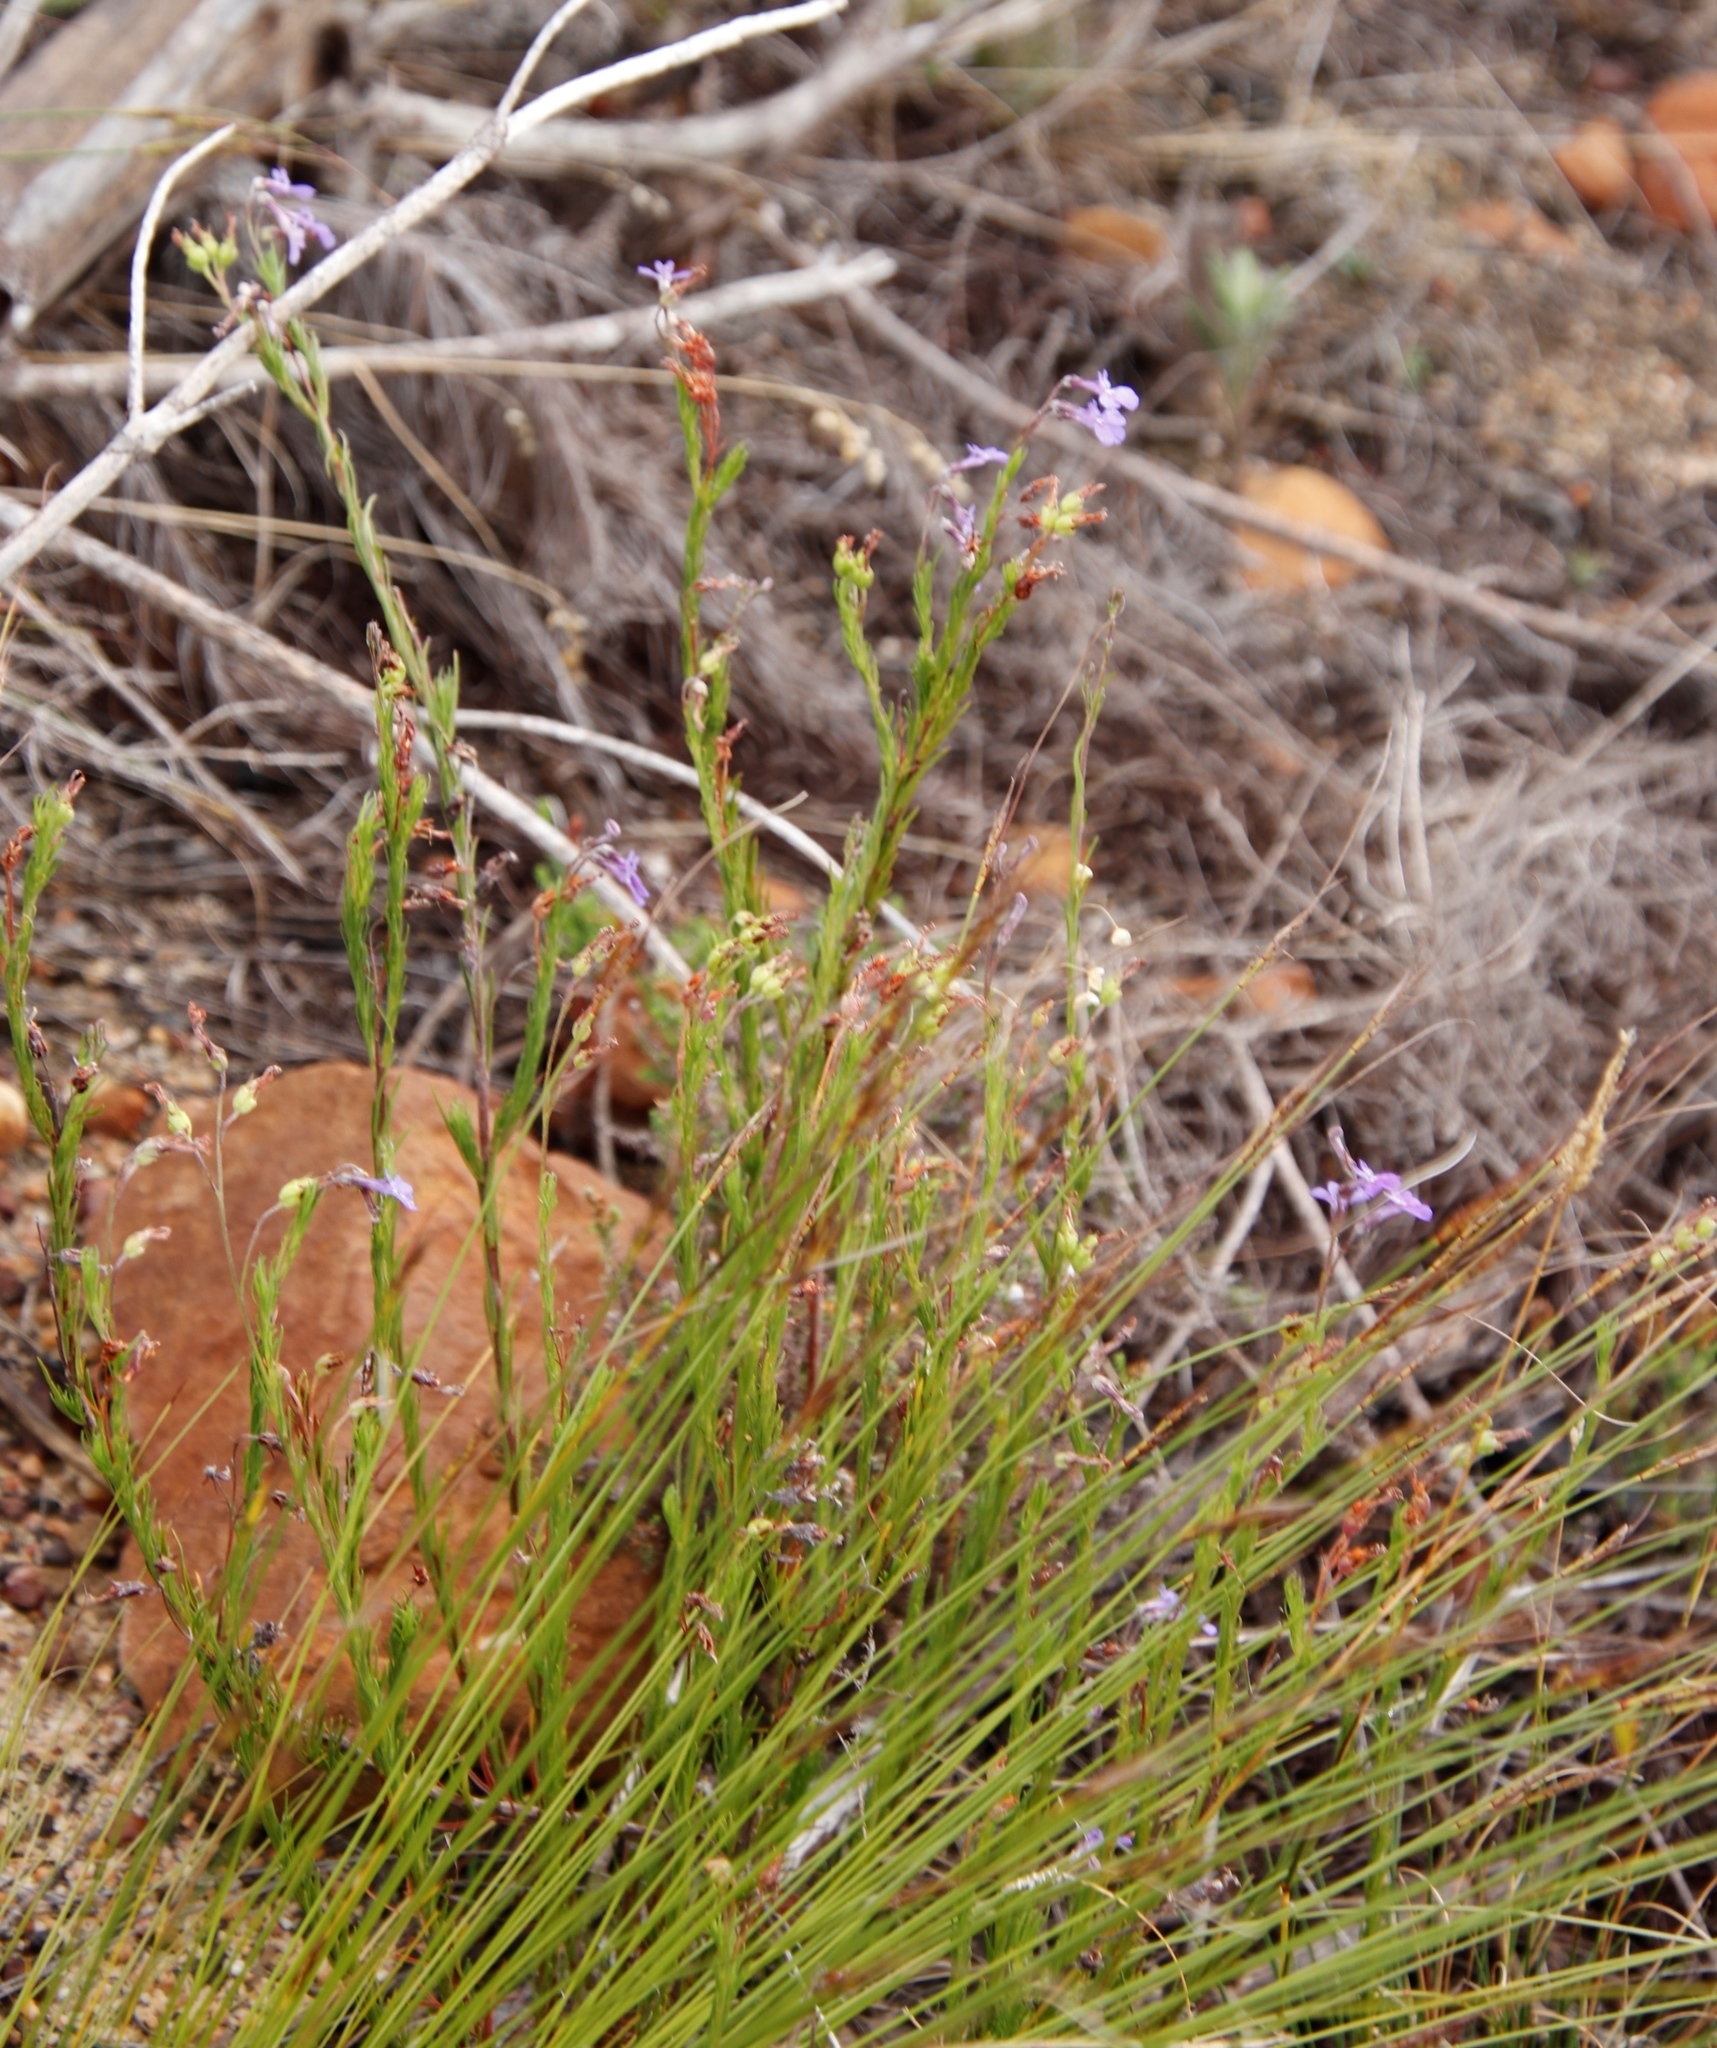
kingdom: Plantae
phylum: Tracheophyta
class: Magnoliopsida
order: Asterales
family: Campanulaceae
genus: Lobelia
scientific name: Lobelia pinifolia
